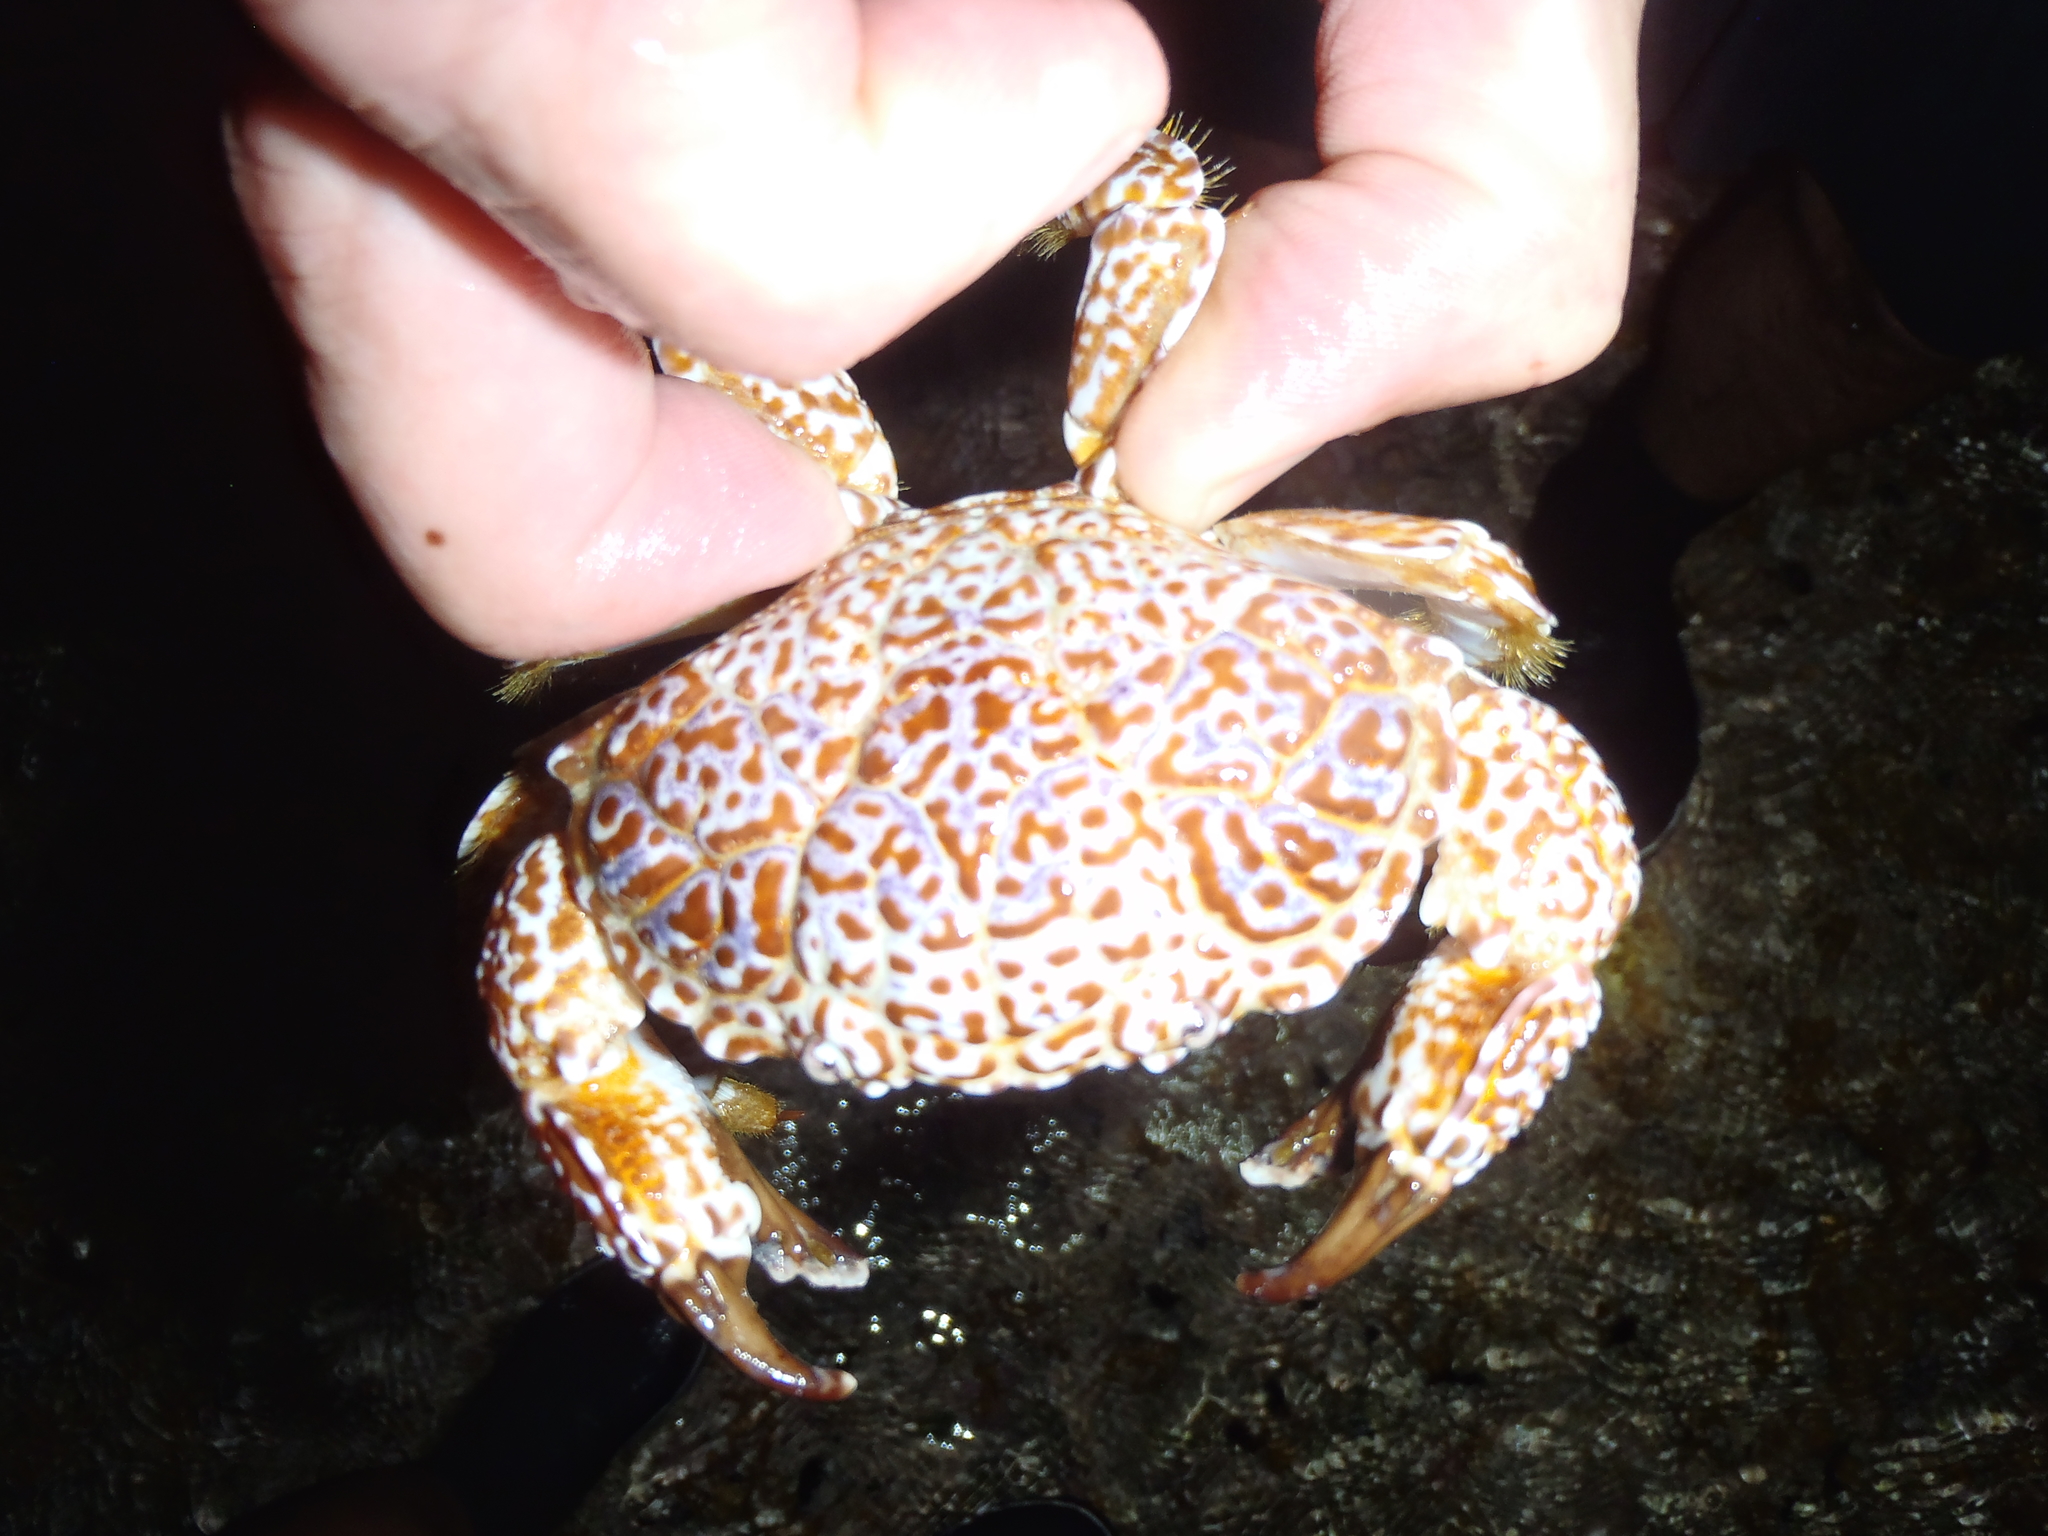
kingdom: Animalia
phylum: Arthropoda
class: Malacostraca
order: Decapoda
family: Xanthidae
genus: Zosimus
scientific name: Zosimus aeneus
